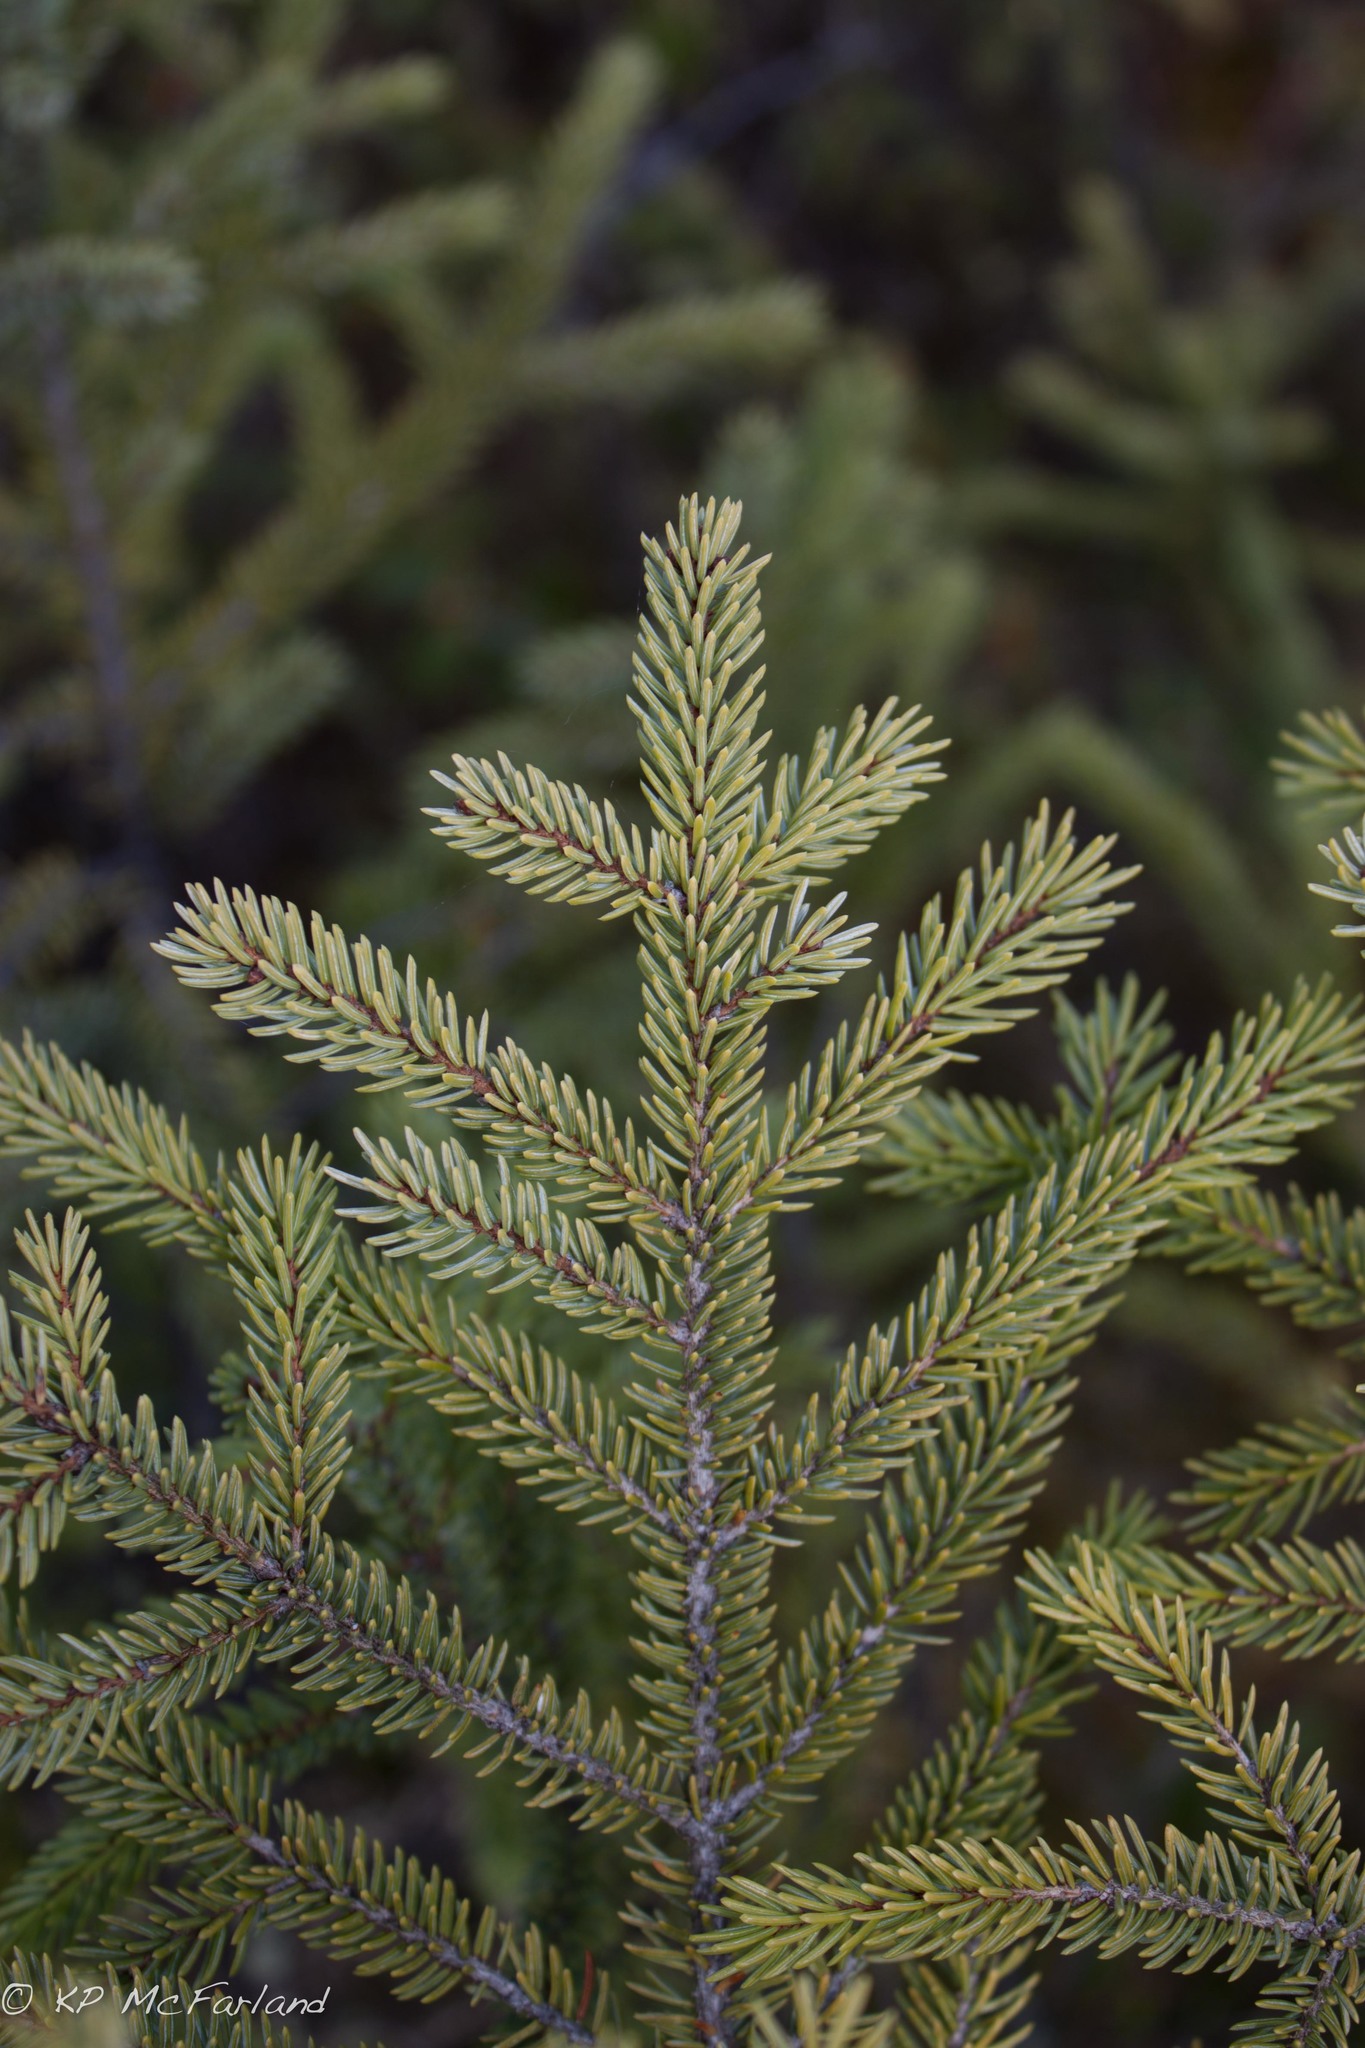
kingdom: Plantae
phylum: Tracheophyta
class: Pinopsida
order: Pinales
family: Pinaceae
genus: Picea
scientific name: Picea mariana
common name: Black spruce
